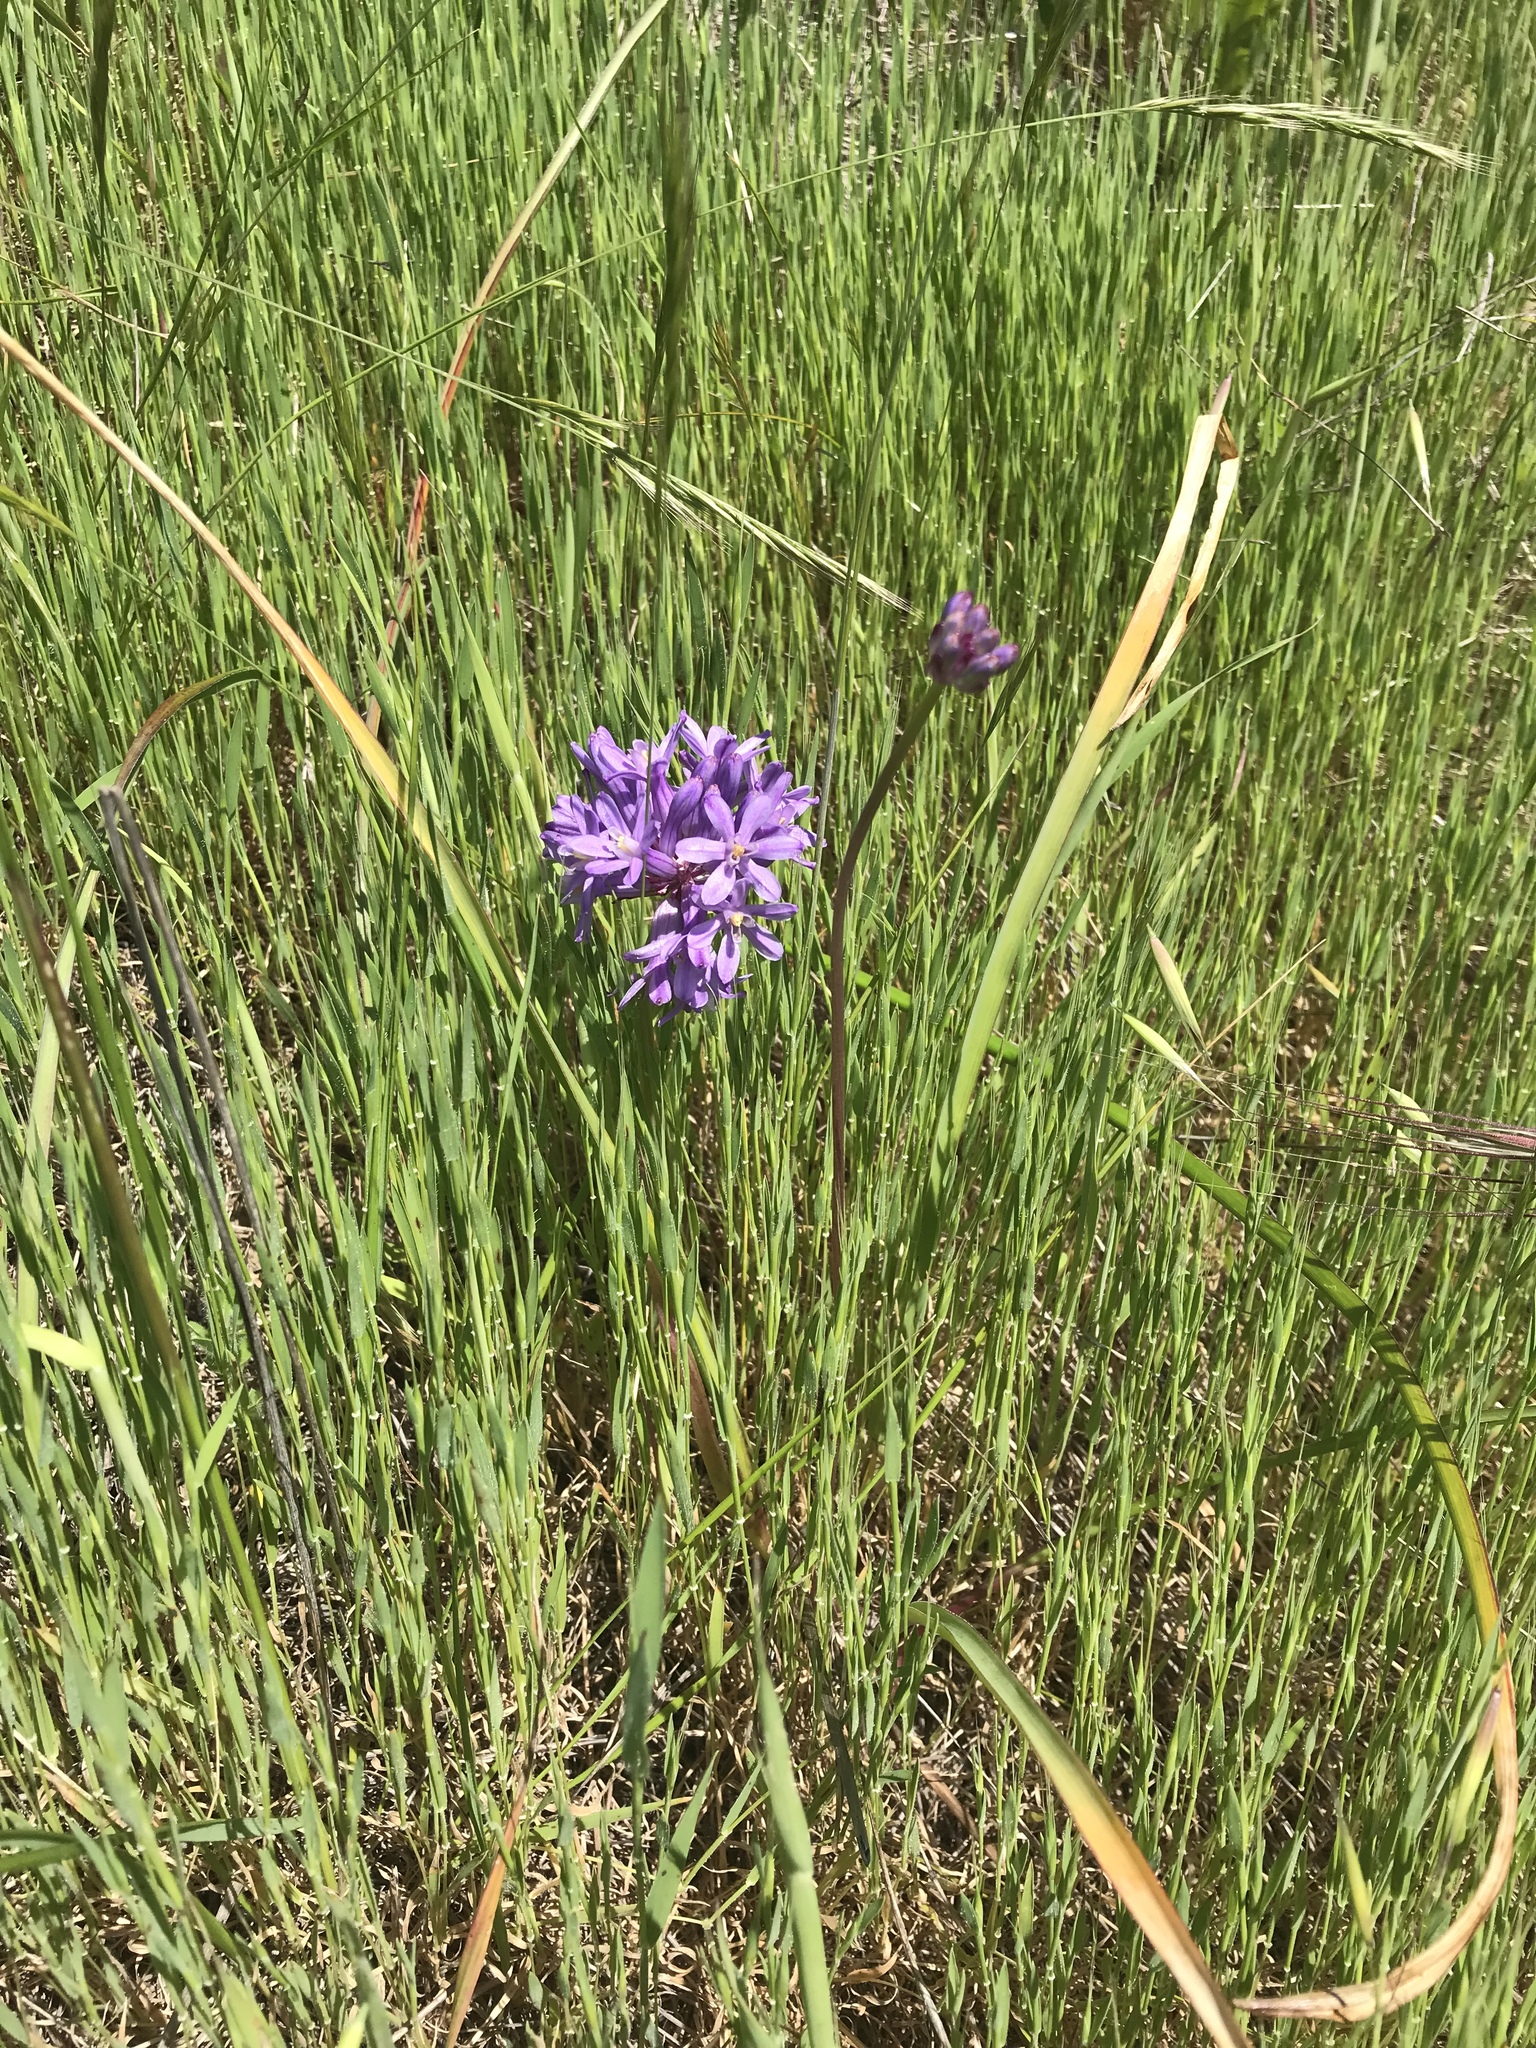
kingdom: Plantae
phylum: Tracheophyta
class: Liliopsida
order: Asparagales
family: Asparagaceae
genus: Dichelostemma
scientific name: Dichelostemma congestum
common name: Fork-tooth ookow
